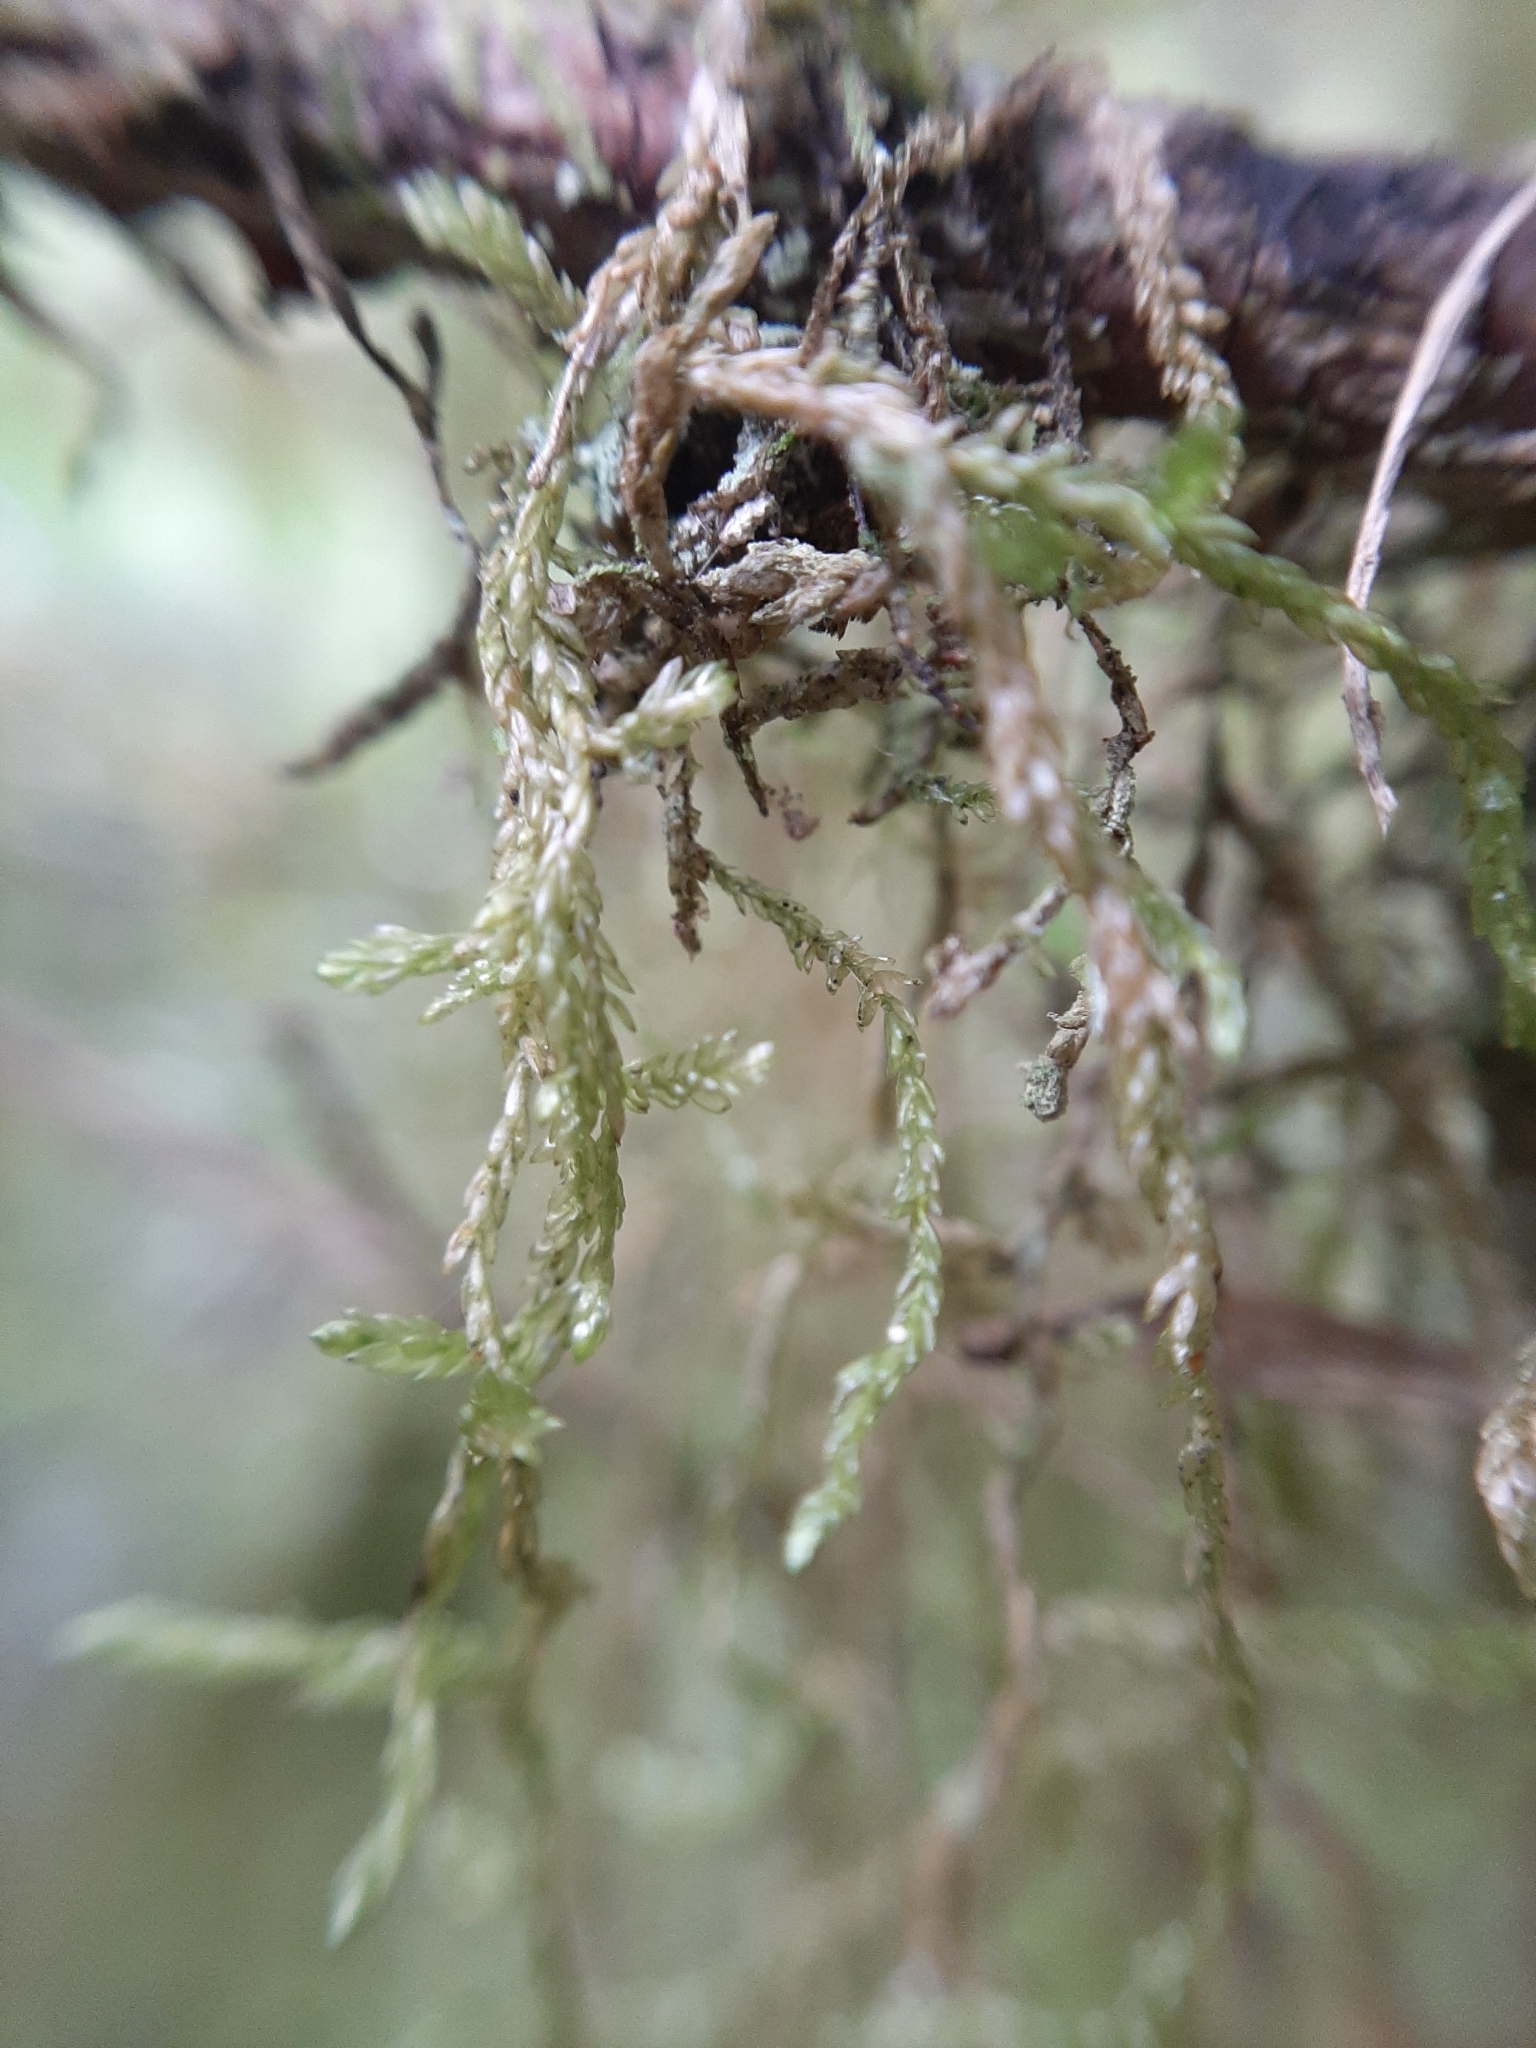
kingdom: Plantae
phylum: Bryophyta
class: Bryopsida
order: Hypnales
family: Lembophyllaceae
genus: Weymouthia
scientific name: Weymouthia mollis
